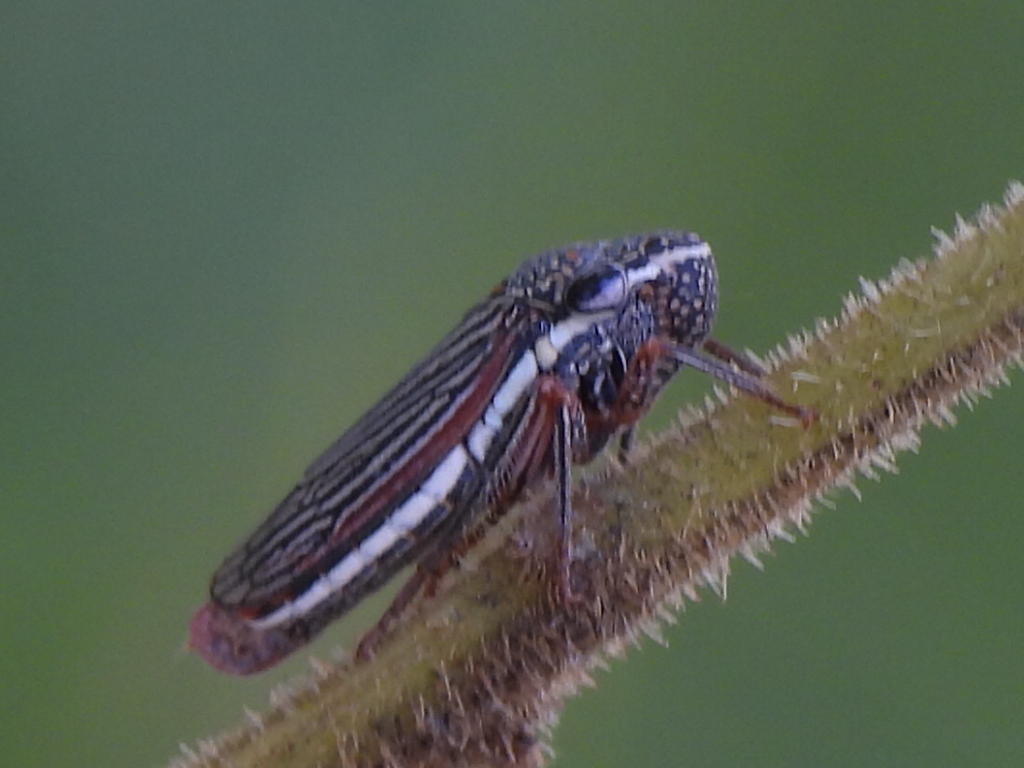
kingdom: Animalia
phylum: Arthropoda
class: Insecta
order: Hemiptera
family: Cicadellidae
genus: Cuerna
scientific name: Cuerna costalis
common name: Lateral-lined sharpshooter
